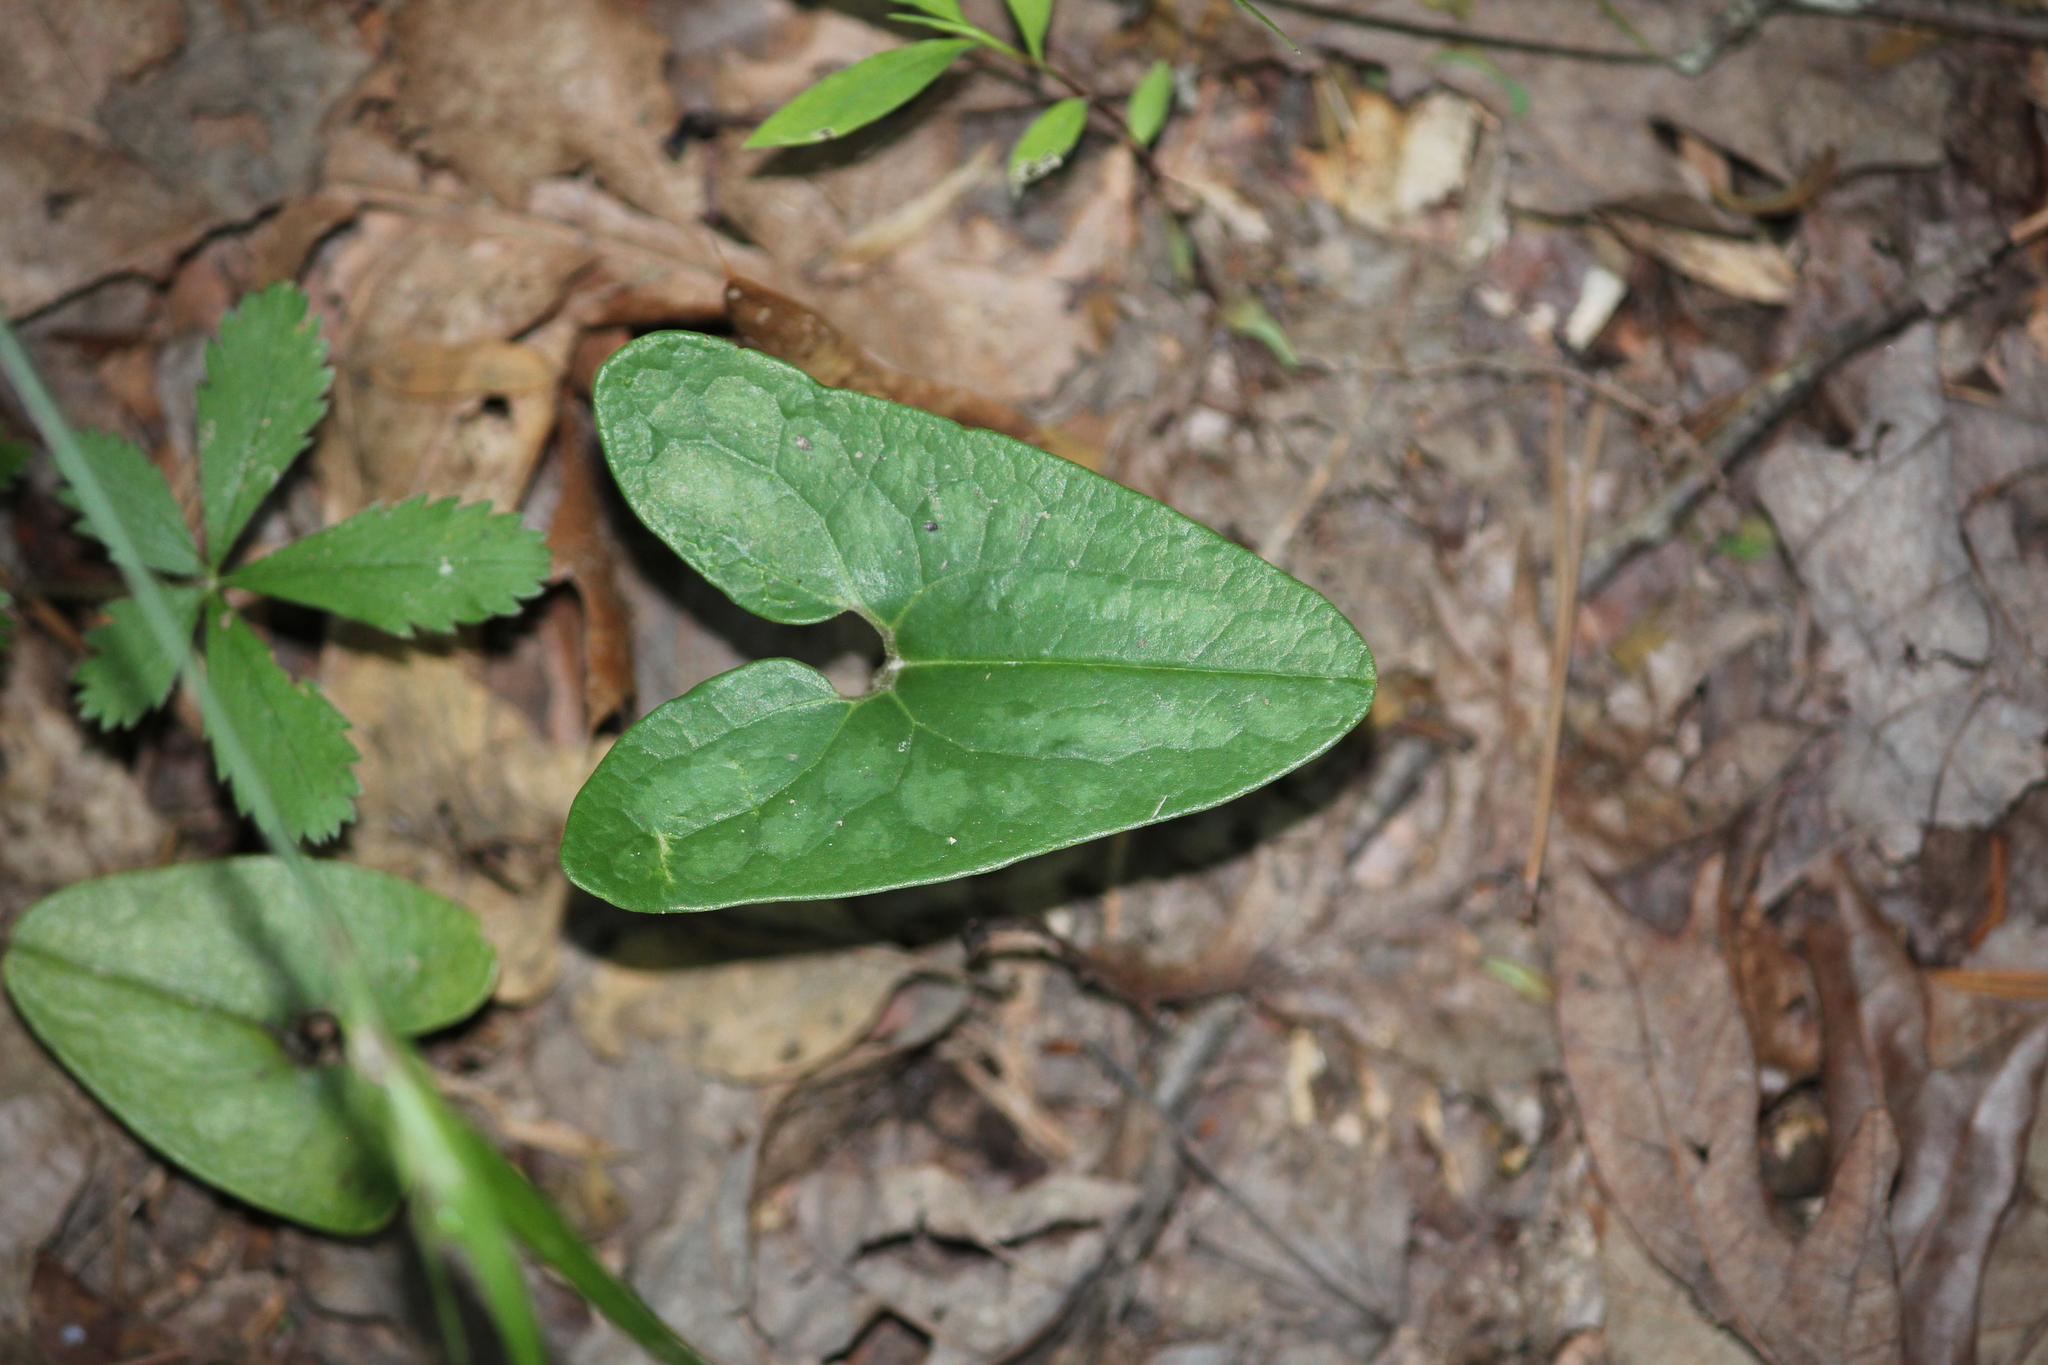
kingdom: Plantae
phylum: Tracheophyta
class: Magnoliopsida
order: Piperales
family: Aristolochiaceae
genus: Hexastylis
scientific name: Hexastylis arifolia
